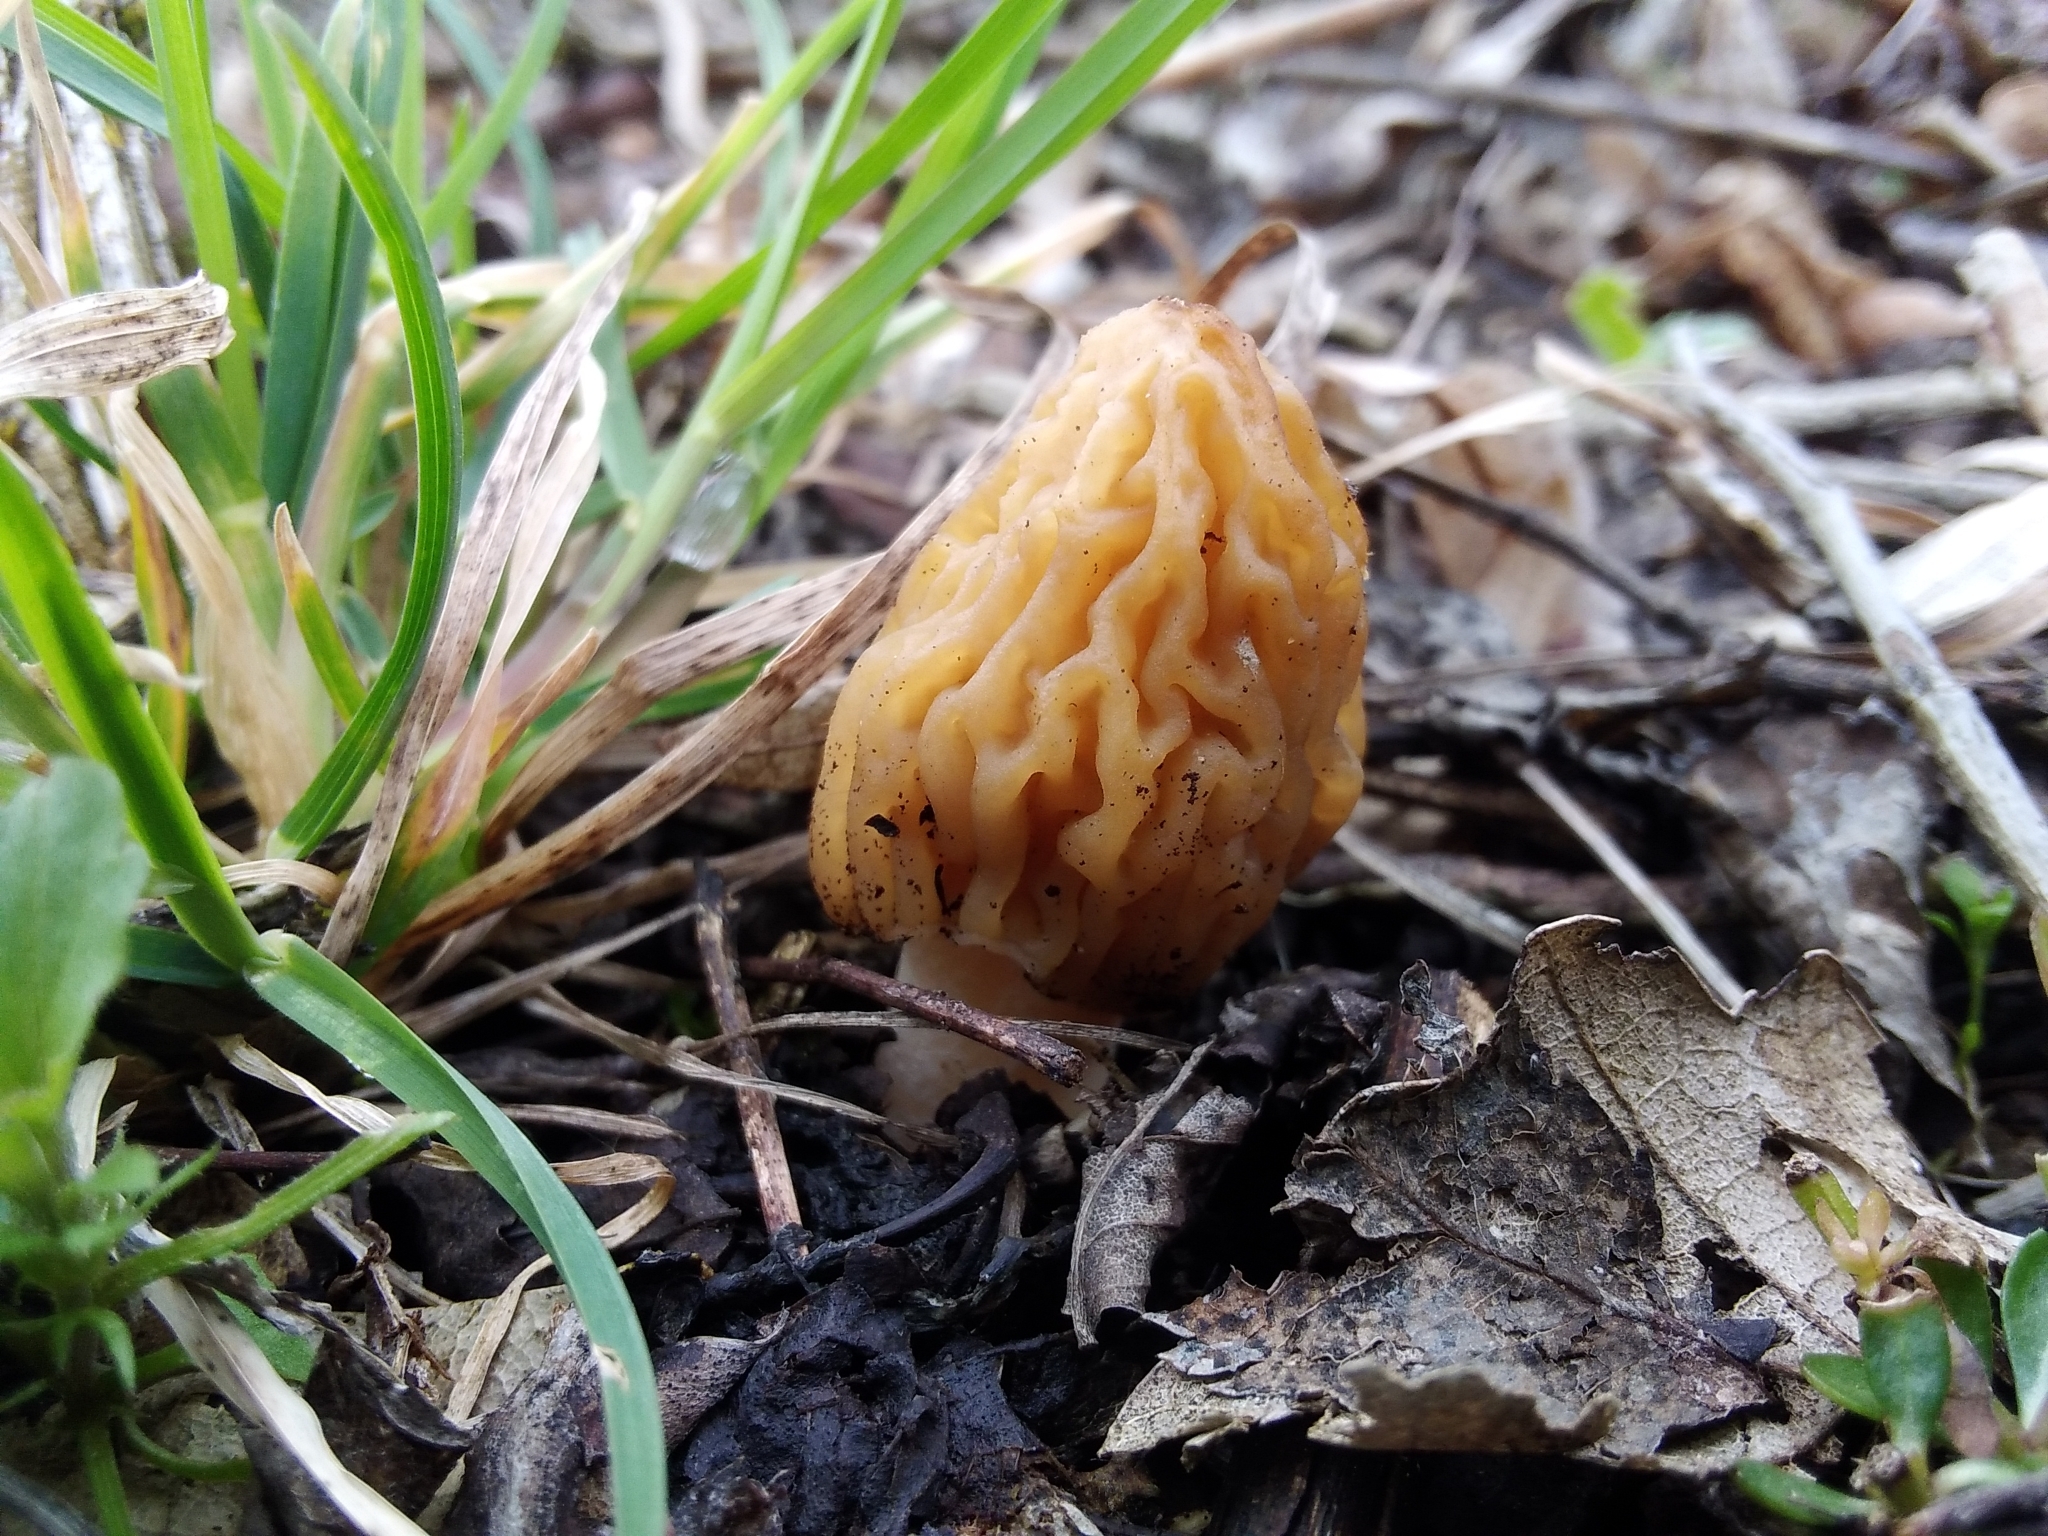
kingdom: Fungi
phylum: Ascomycota
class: Pezizomycetes
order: Pezizales
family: Morchellaceae
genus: Verpa
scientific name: Verpa bohemica
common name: Wrinkled thimble morel
